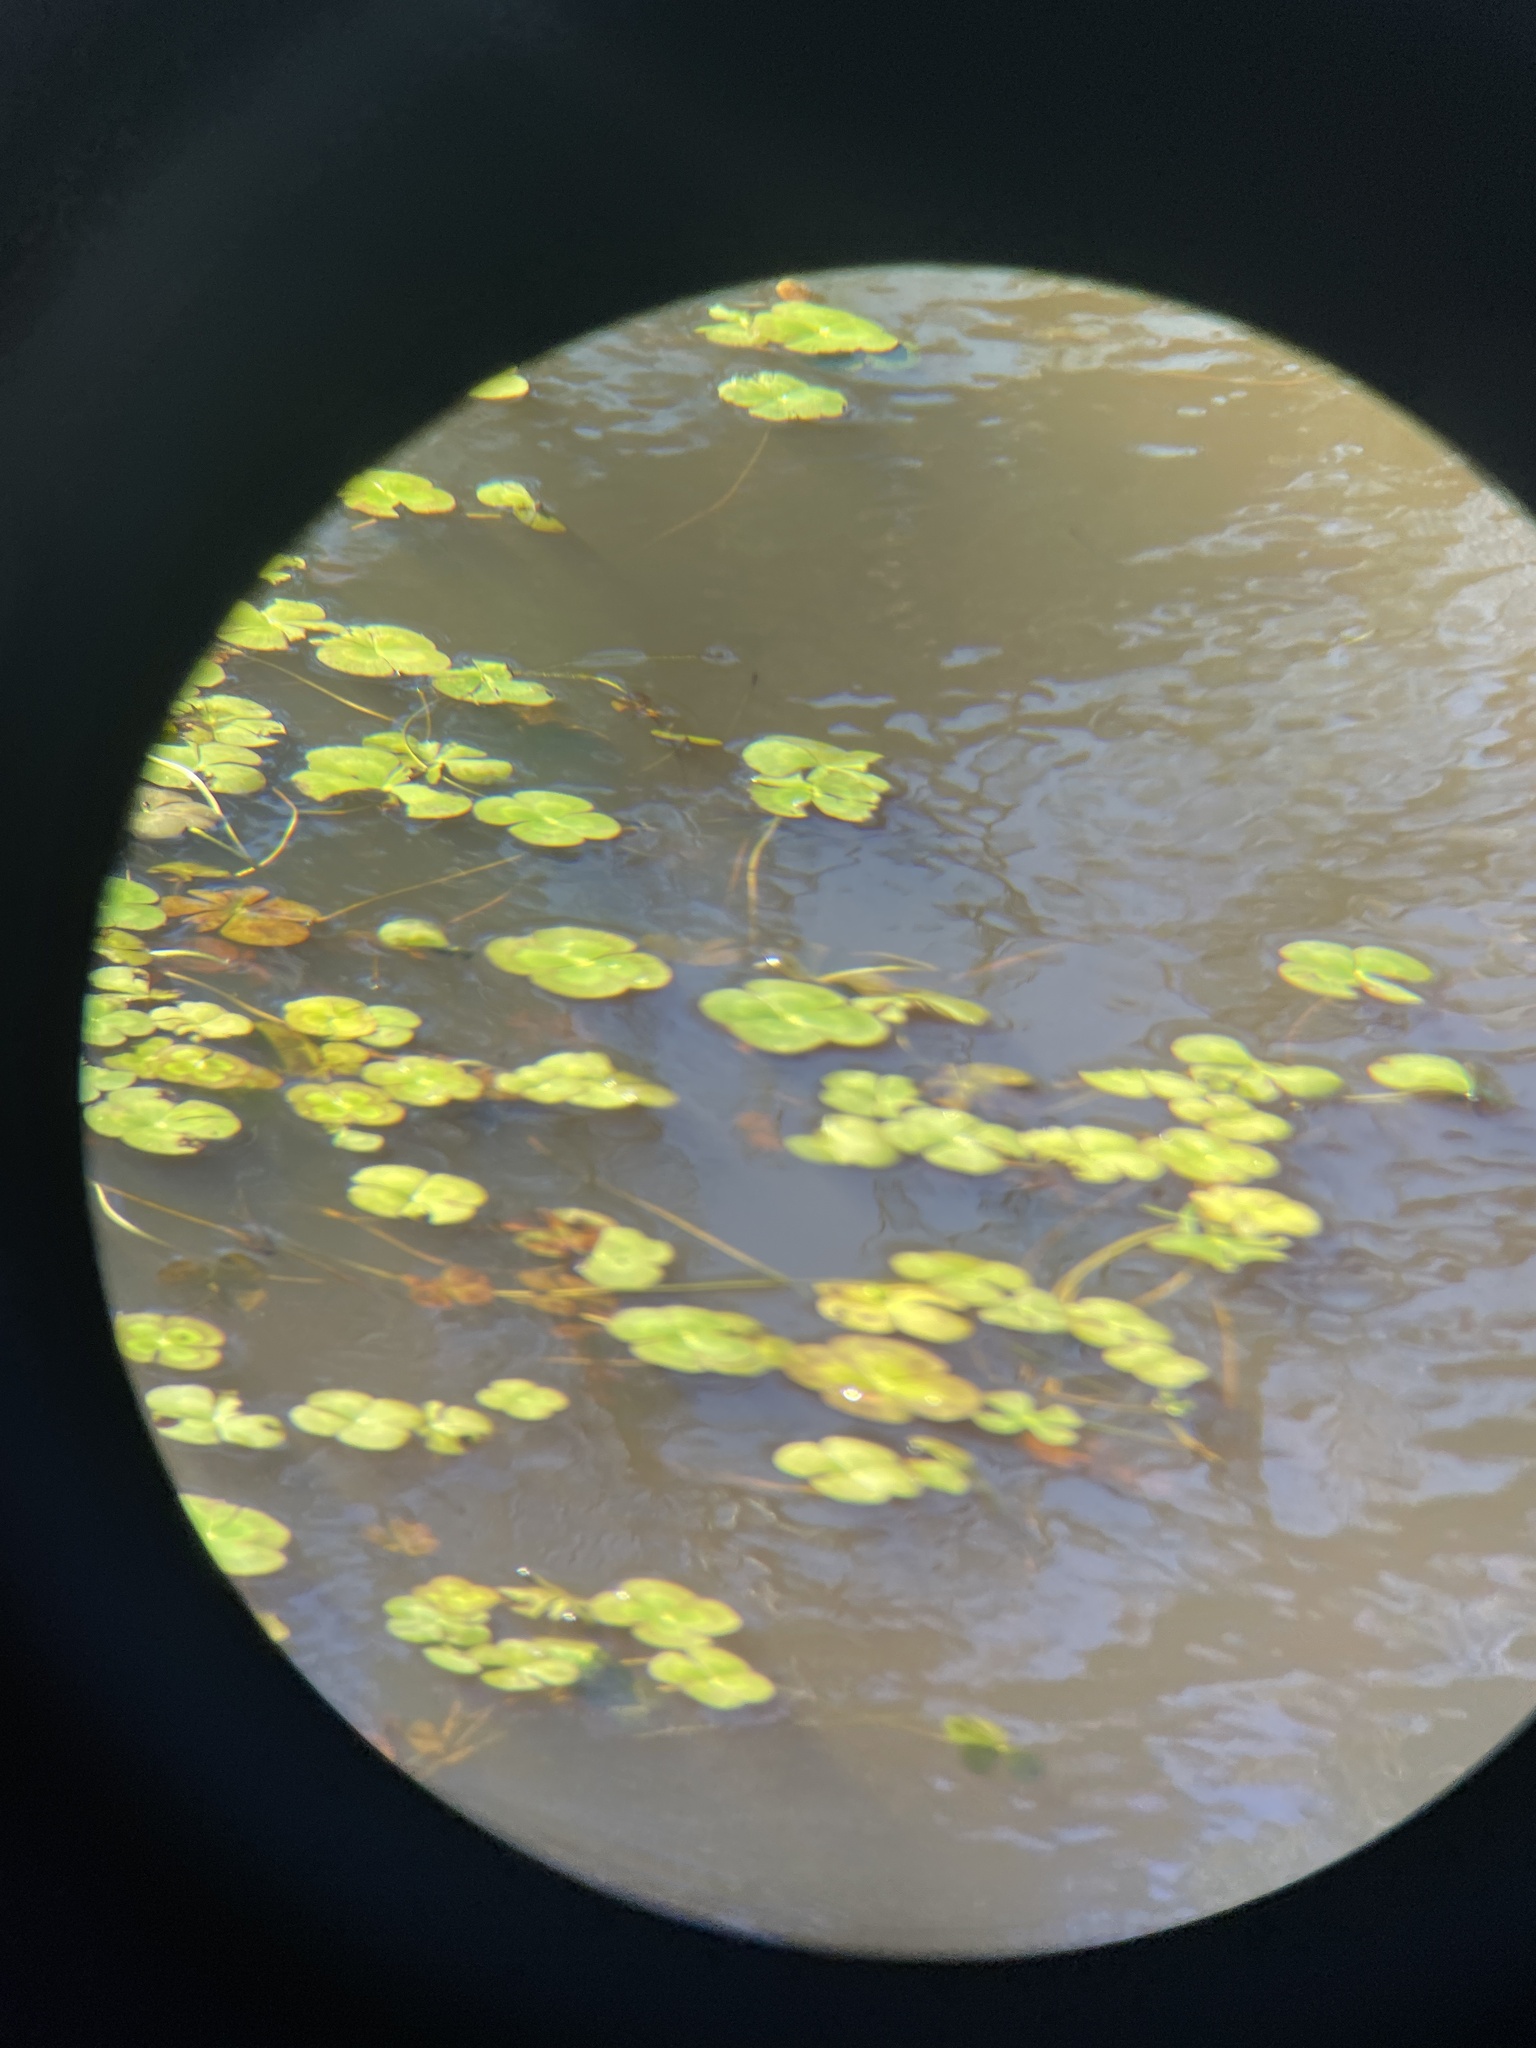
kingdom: Plantae
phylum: Tracheophyta
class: Polypodiopsida
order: Salviniales
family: Marsileaceae
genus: Marsilea
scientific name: Marsilea mutica
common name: Australian water-clover
